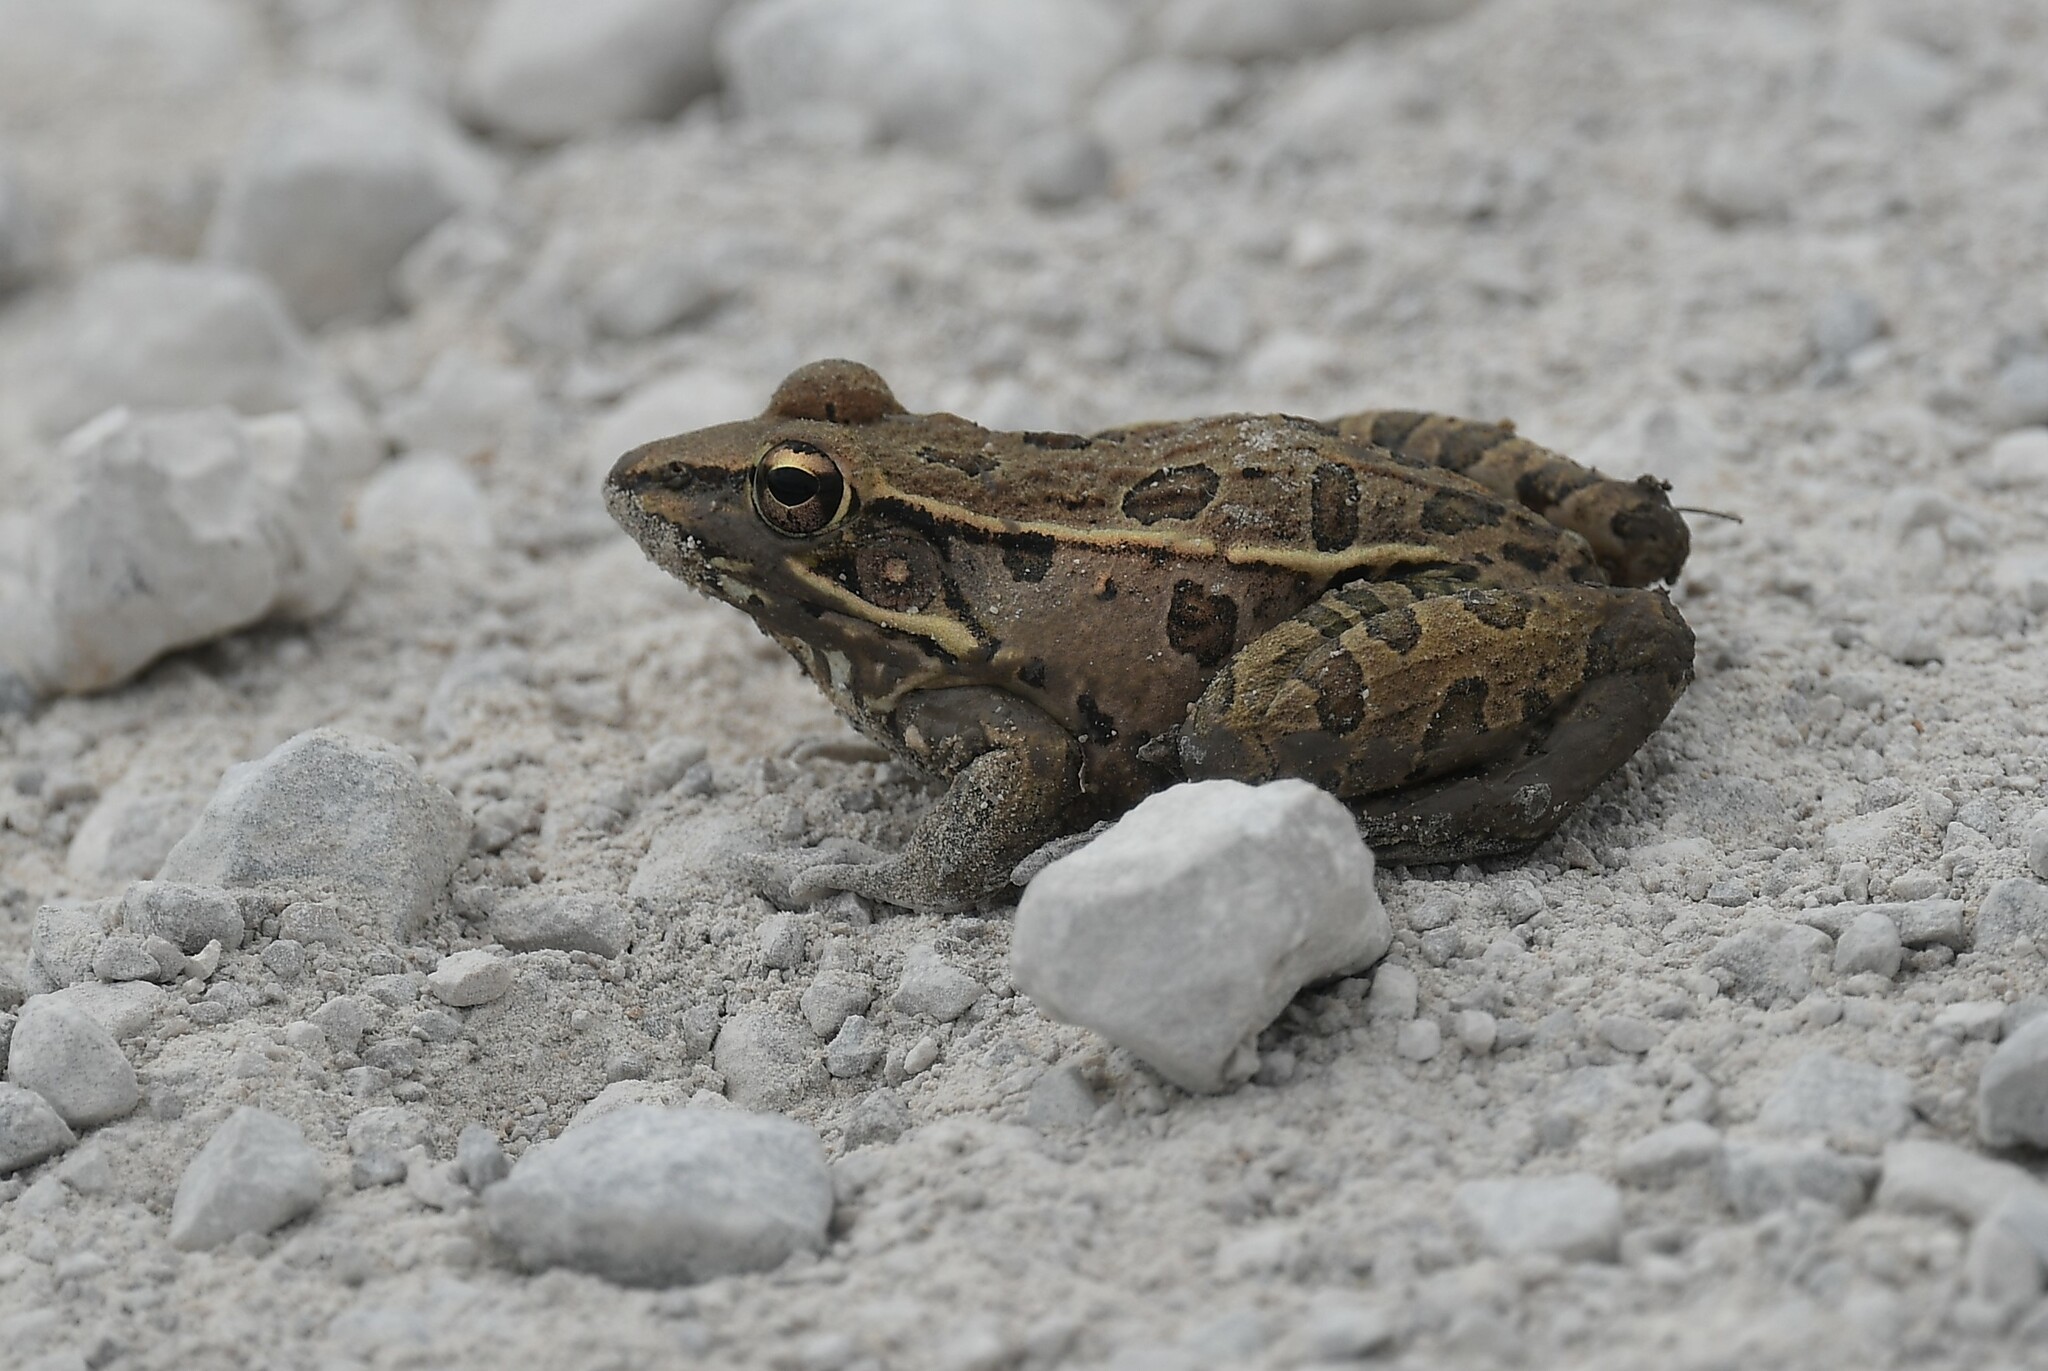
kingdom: Animalia
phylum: Chordata
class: Amphibia
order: Anura
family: Ranidae
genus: Lithobates
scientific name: Lithobates sphenocephalus
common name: Southern leopard frog
